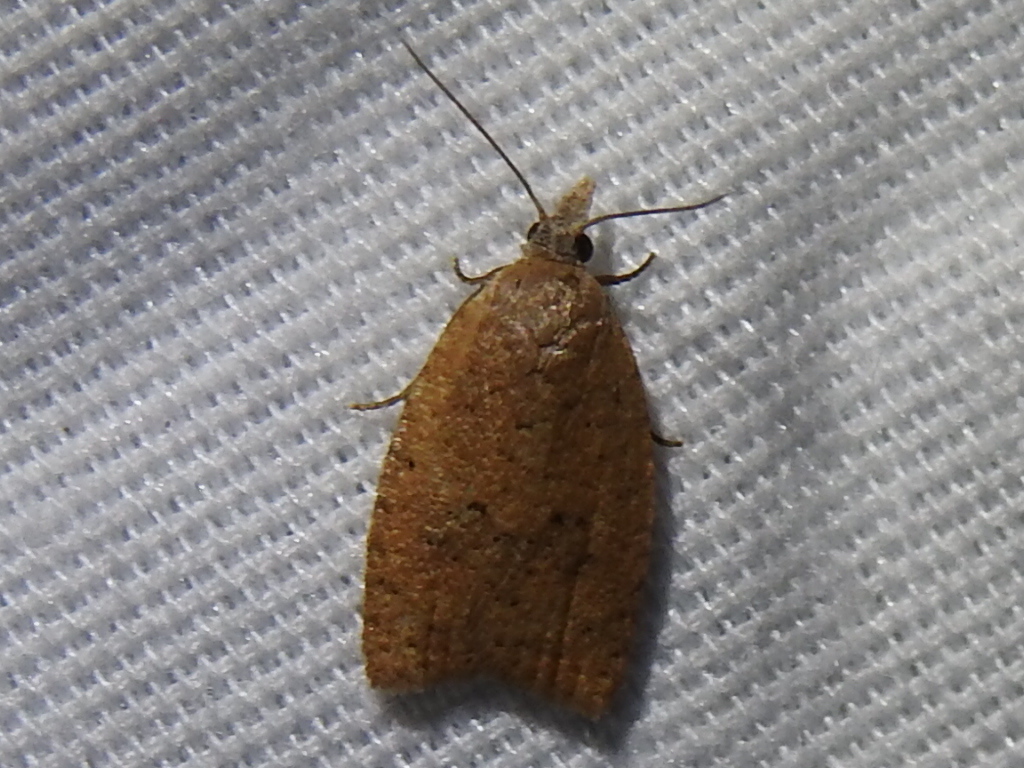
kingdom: Animalia
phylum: Arthropoda
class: Insecta
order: Lepidoptera
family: Tortricidae
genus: Sparganothoides
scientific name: Sparganothoides lentiginosana
